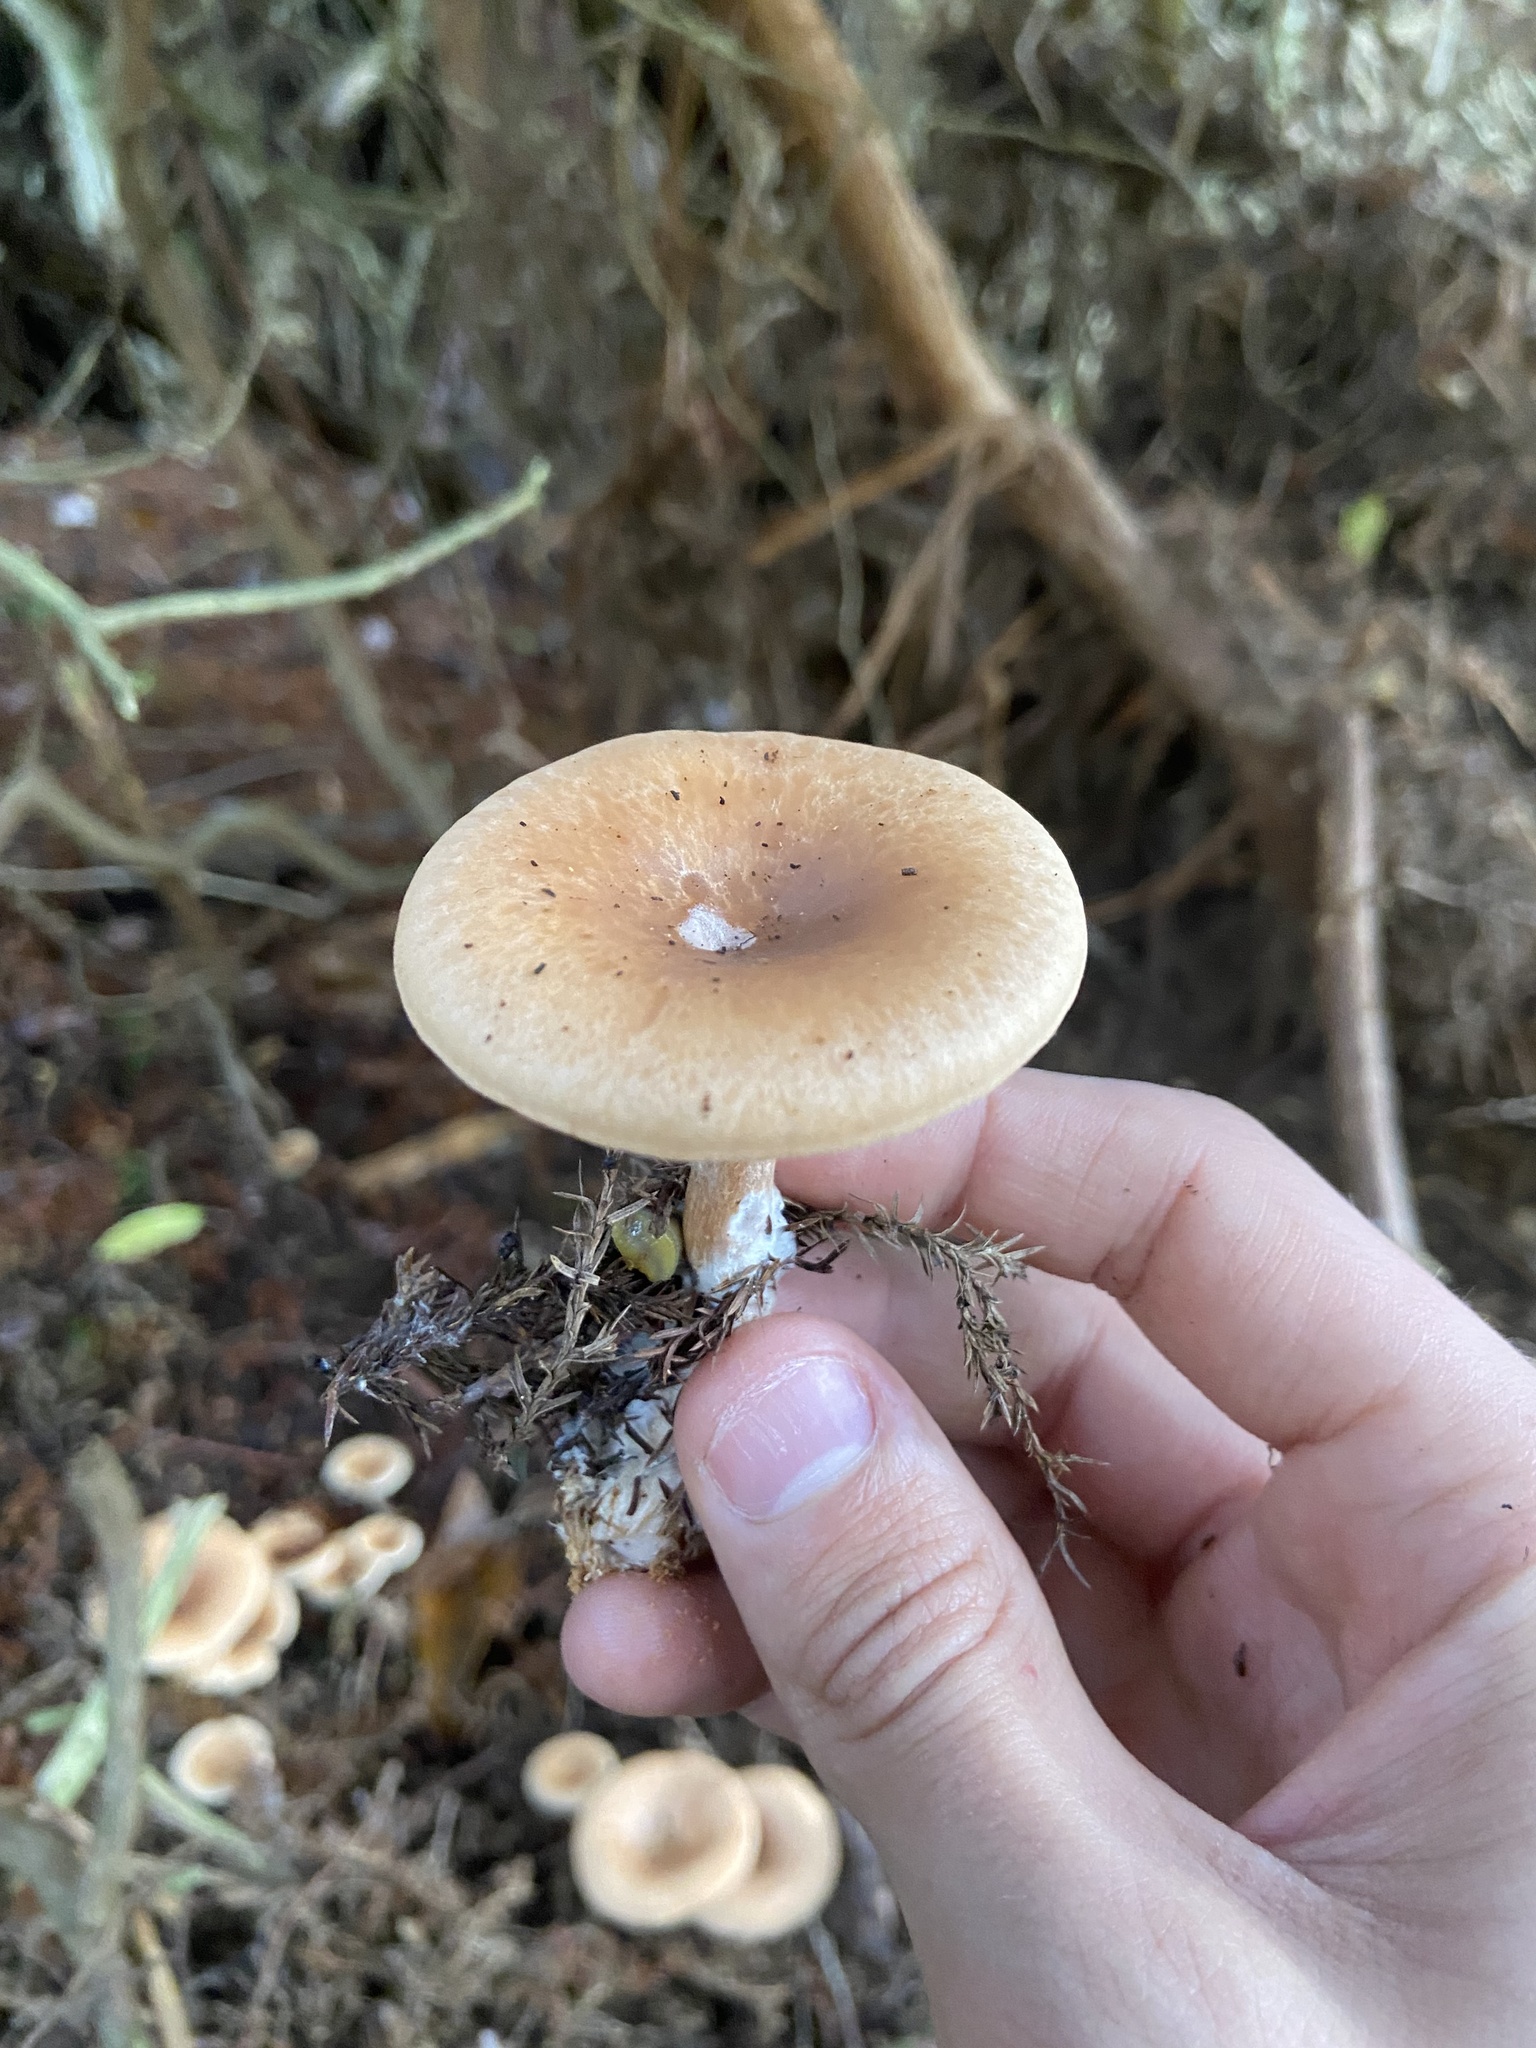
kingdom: Fungi
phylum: Basidiomycota
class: Agaricomycetes
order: Agaricales
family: Tricholomataceae
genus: Paralepista
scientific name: Paralepista flaccida
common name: Tawny funnel cap
